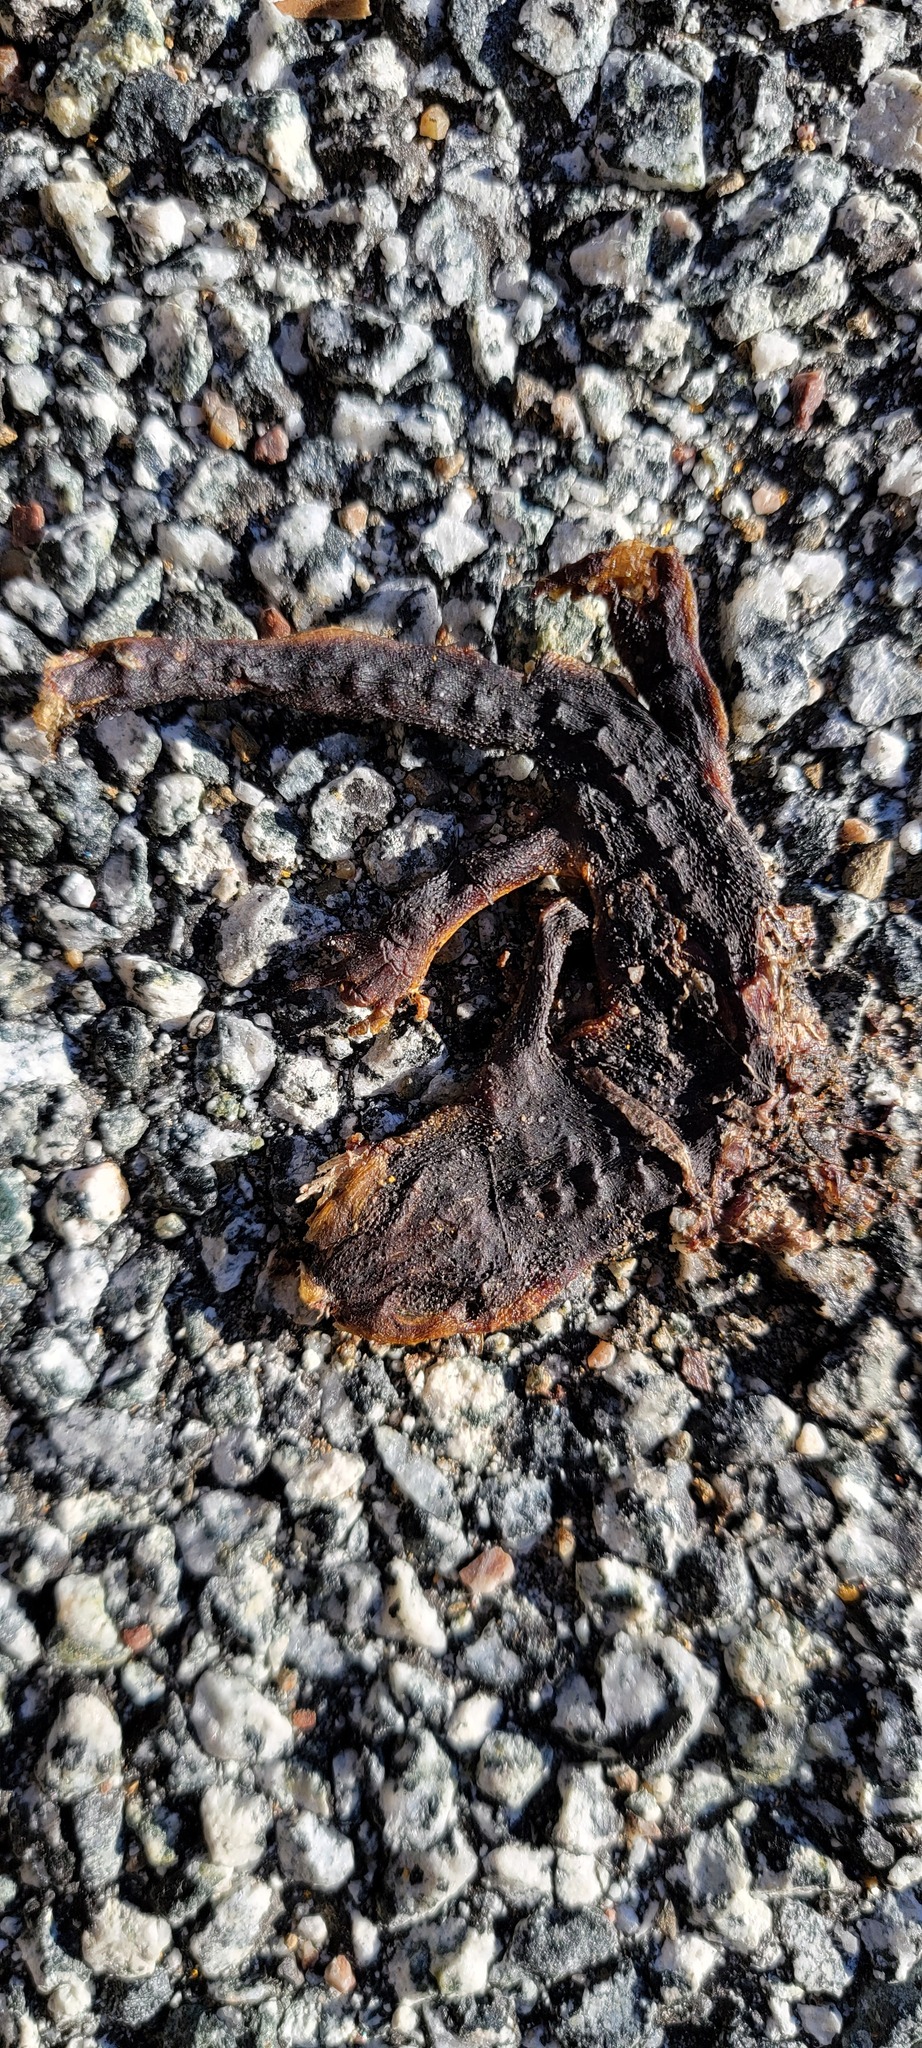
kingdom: Animalia
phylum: Chordata
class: Amphibia
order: Caudata
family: Salamandridae
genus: Taricha
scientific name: Taricha
